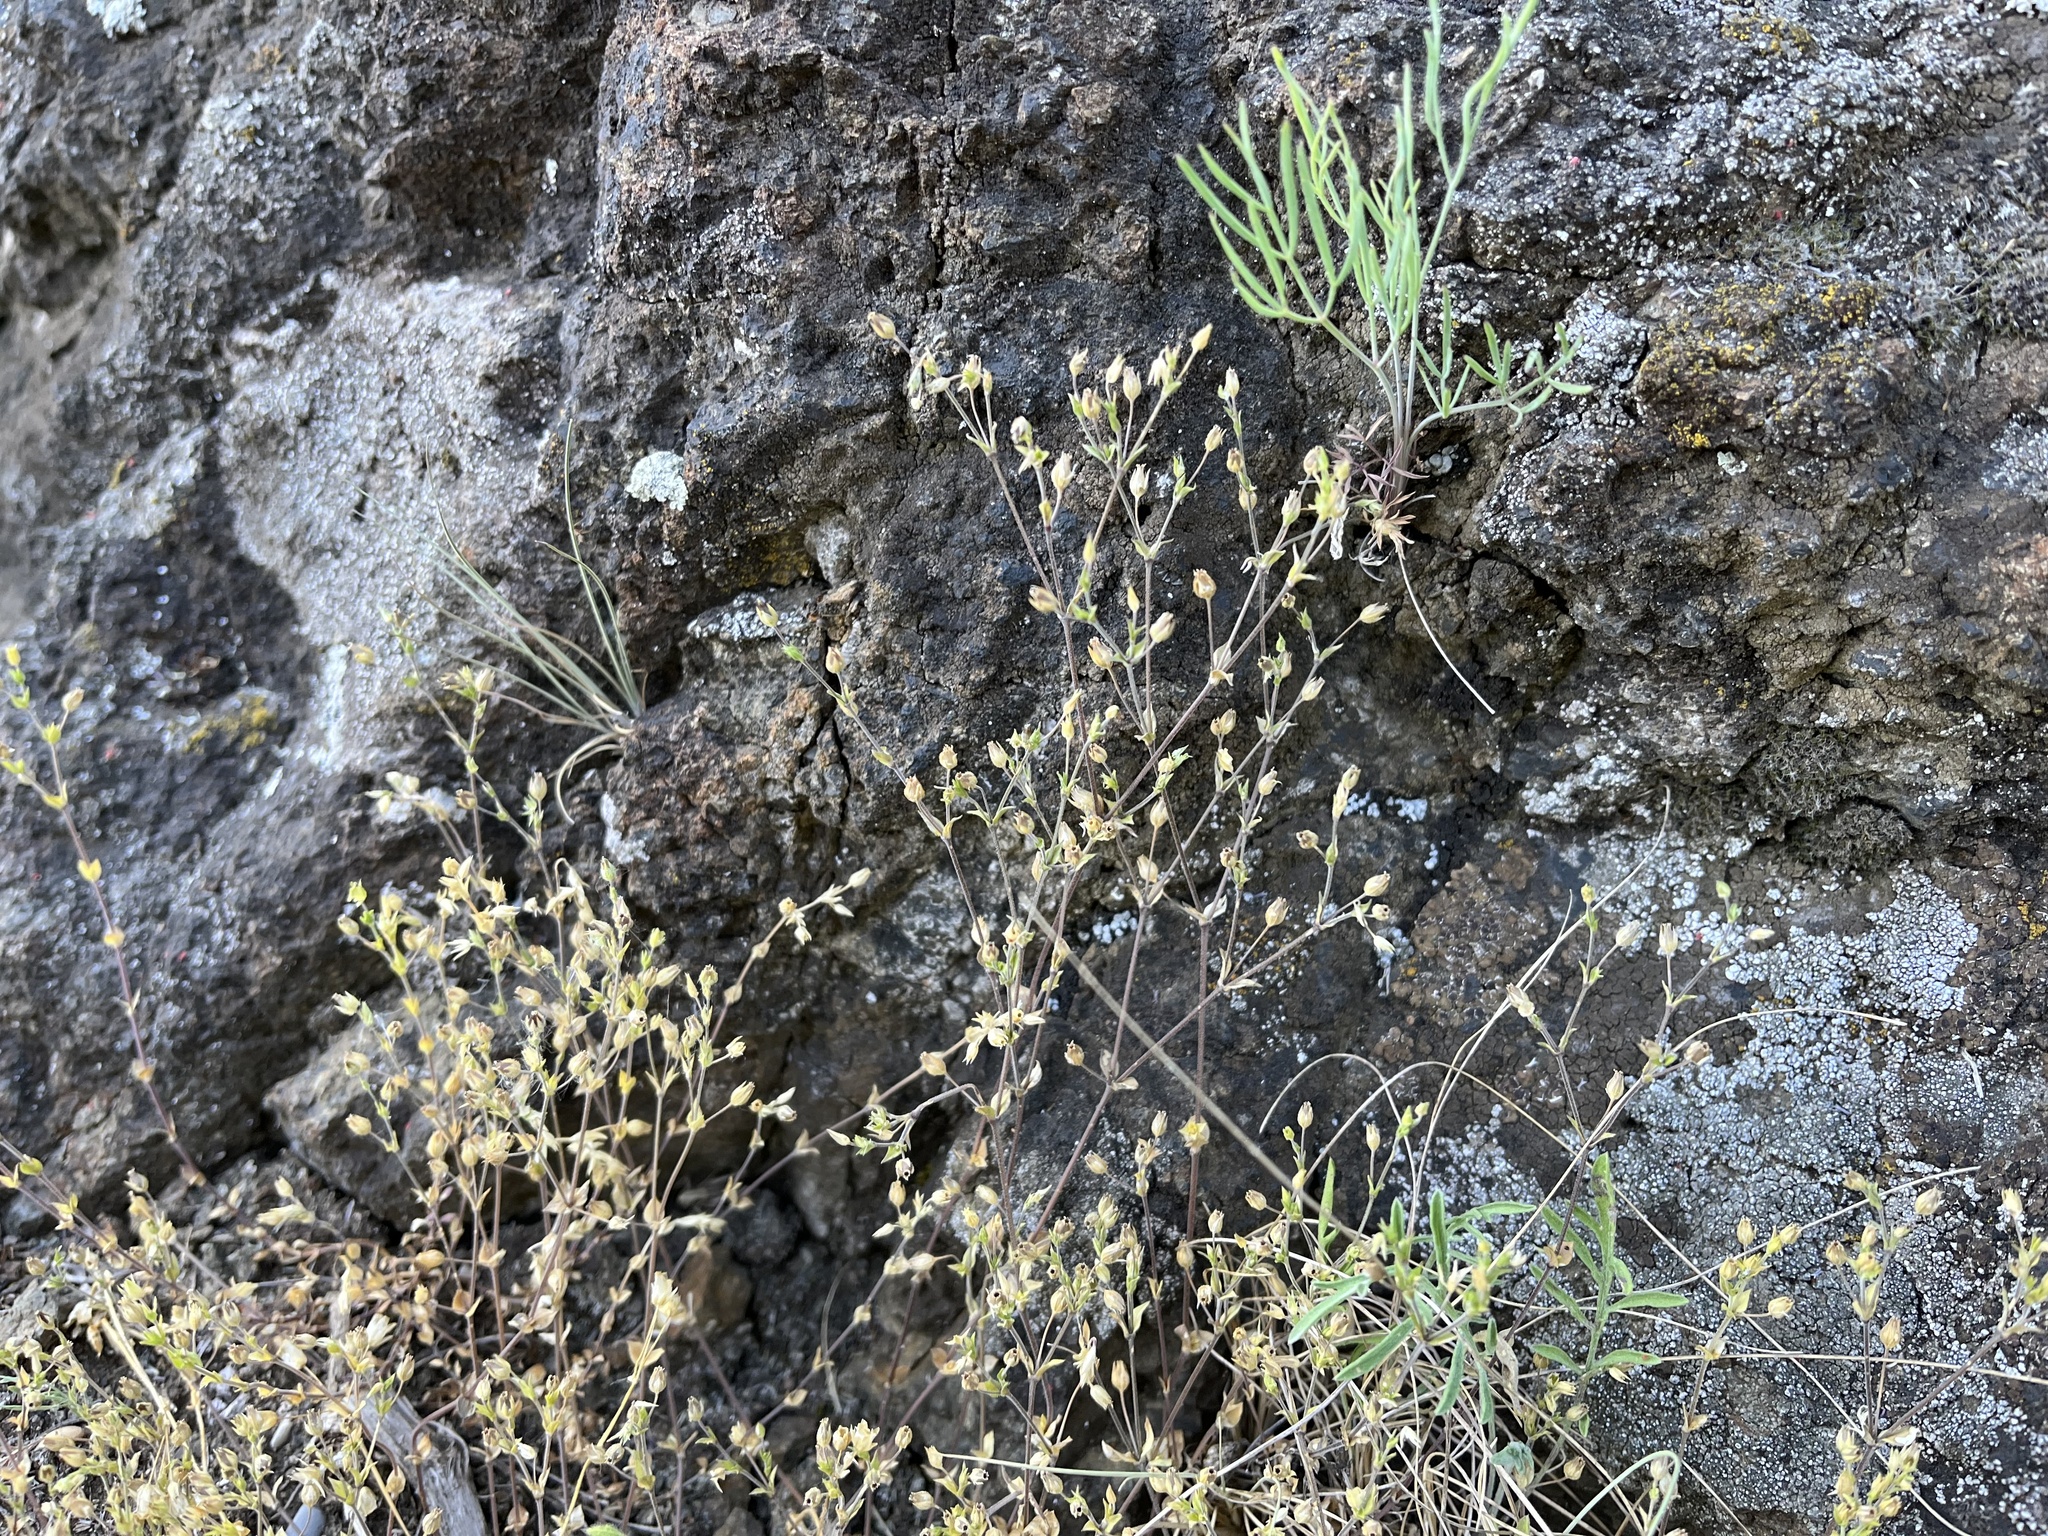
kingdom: Plantae
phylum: Tracheophyta
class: Magnoliopsida
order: Caryophyllales
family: Caryophyllaceae
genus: Arenaria
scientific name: Arenaria serpyllifolia
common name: Thyme-leaved sandwort
